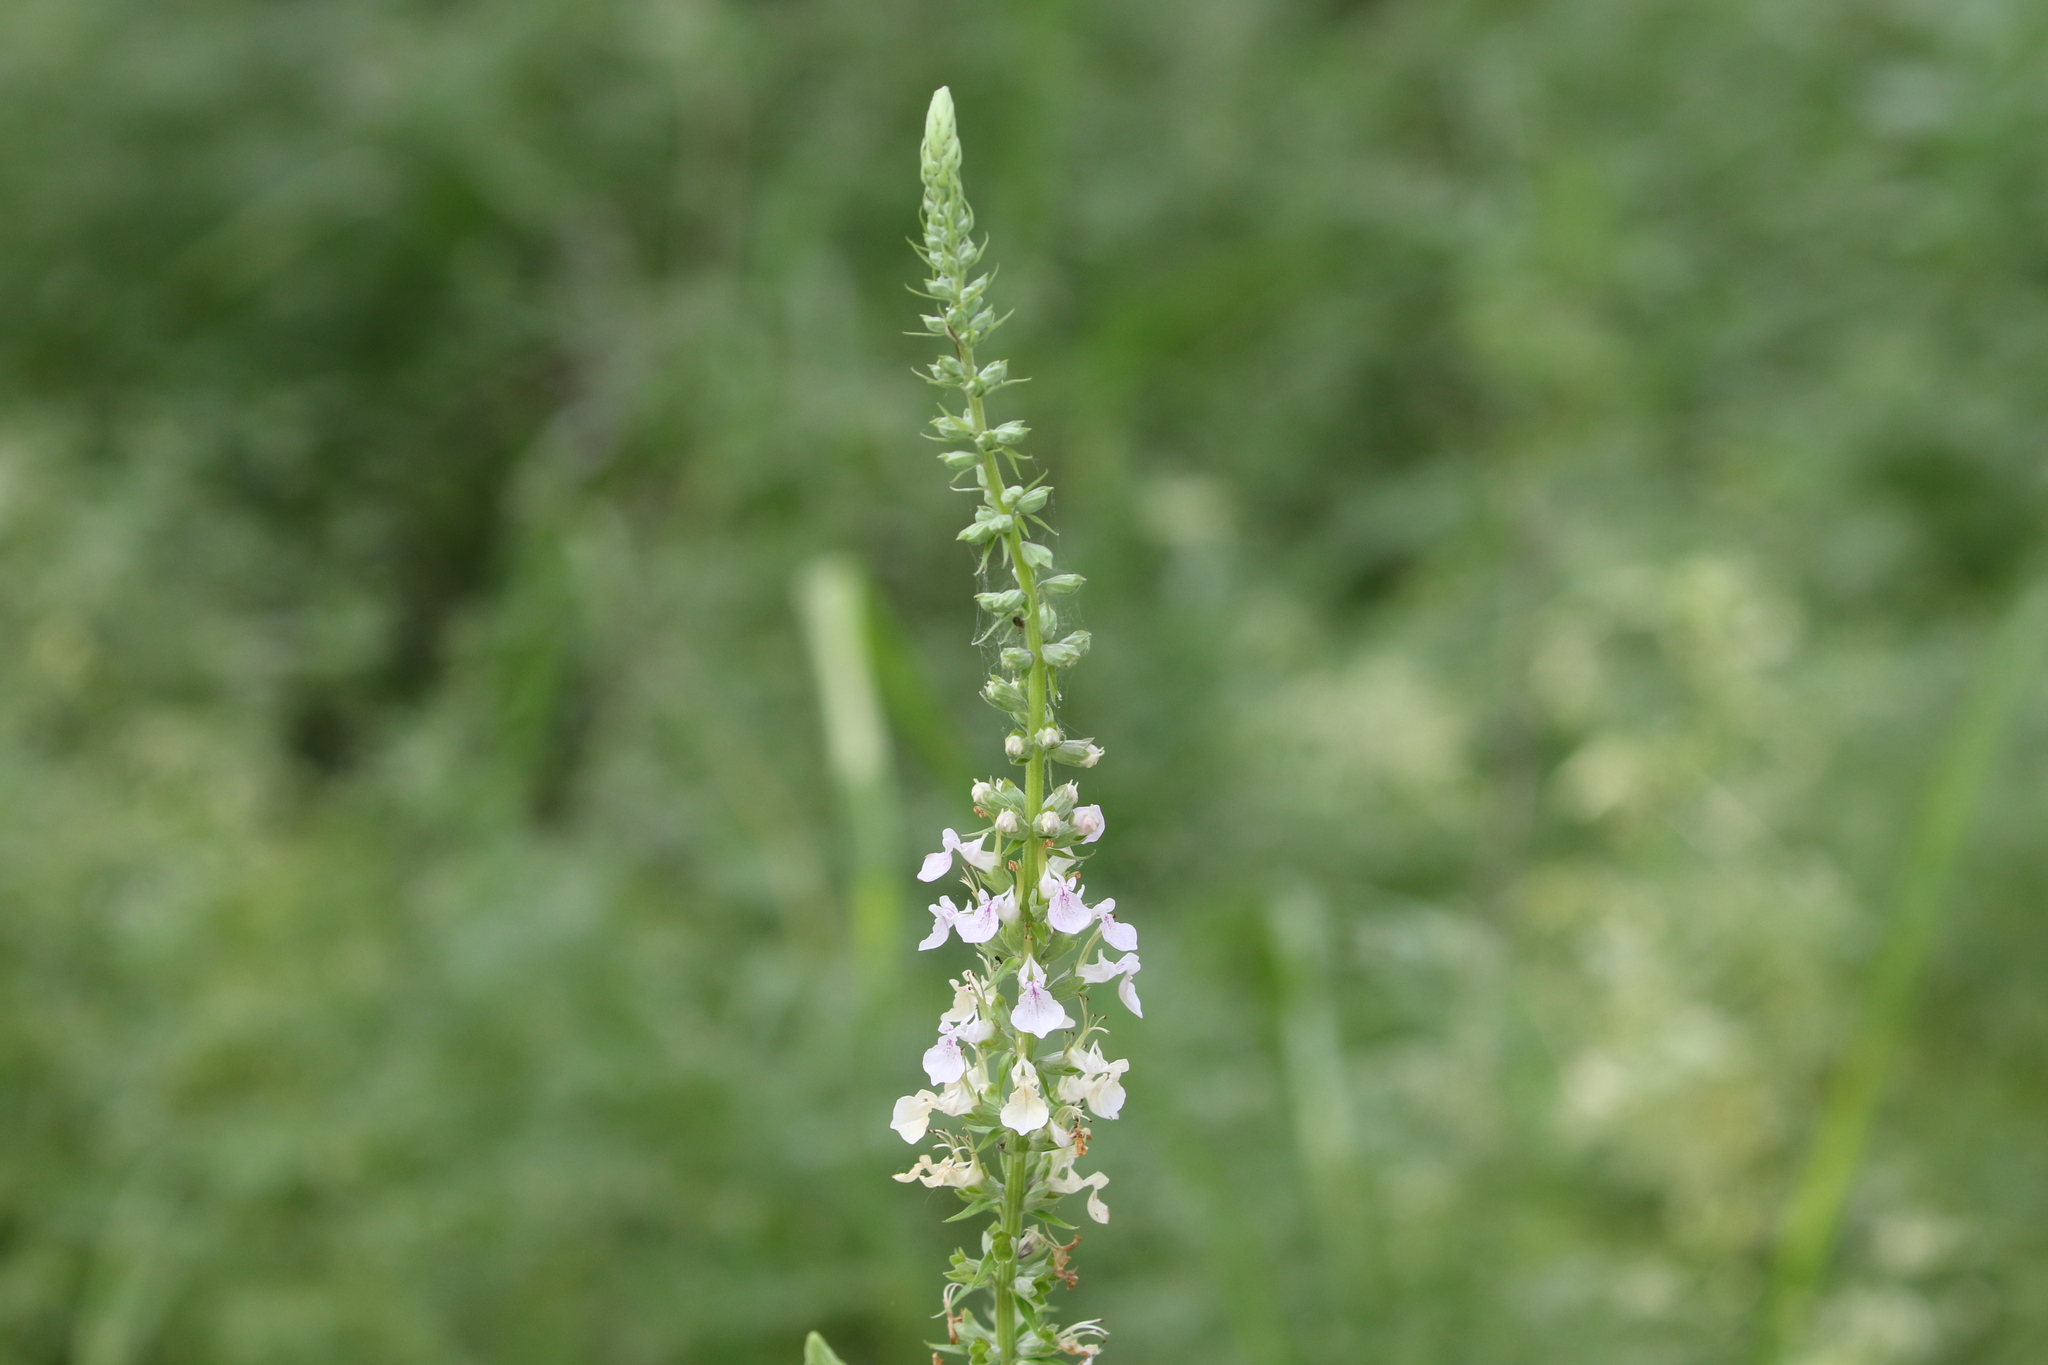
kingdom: Plantae
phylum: Tracheophyta
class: Magnoliopsida
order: Lamiales
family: Lamiaceae
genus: Teucrium
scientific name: Teucrium canadense
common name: American germander
